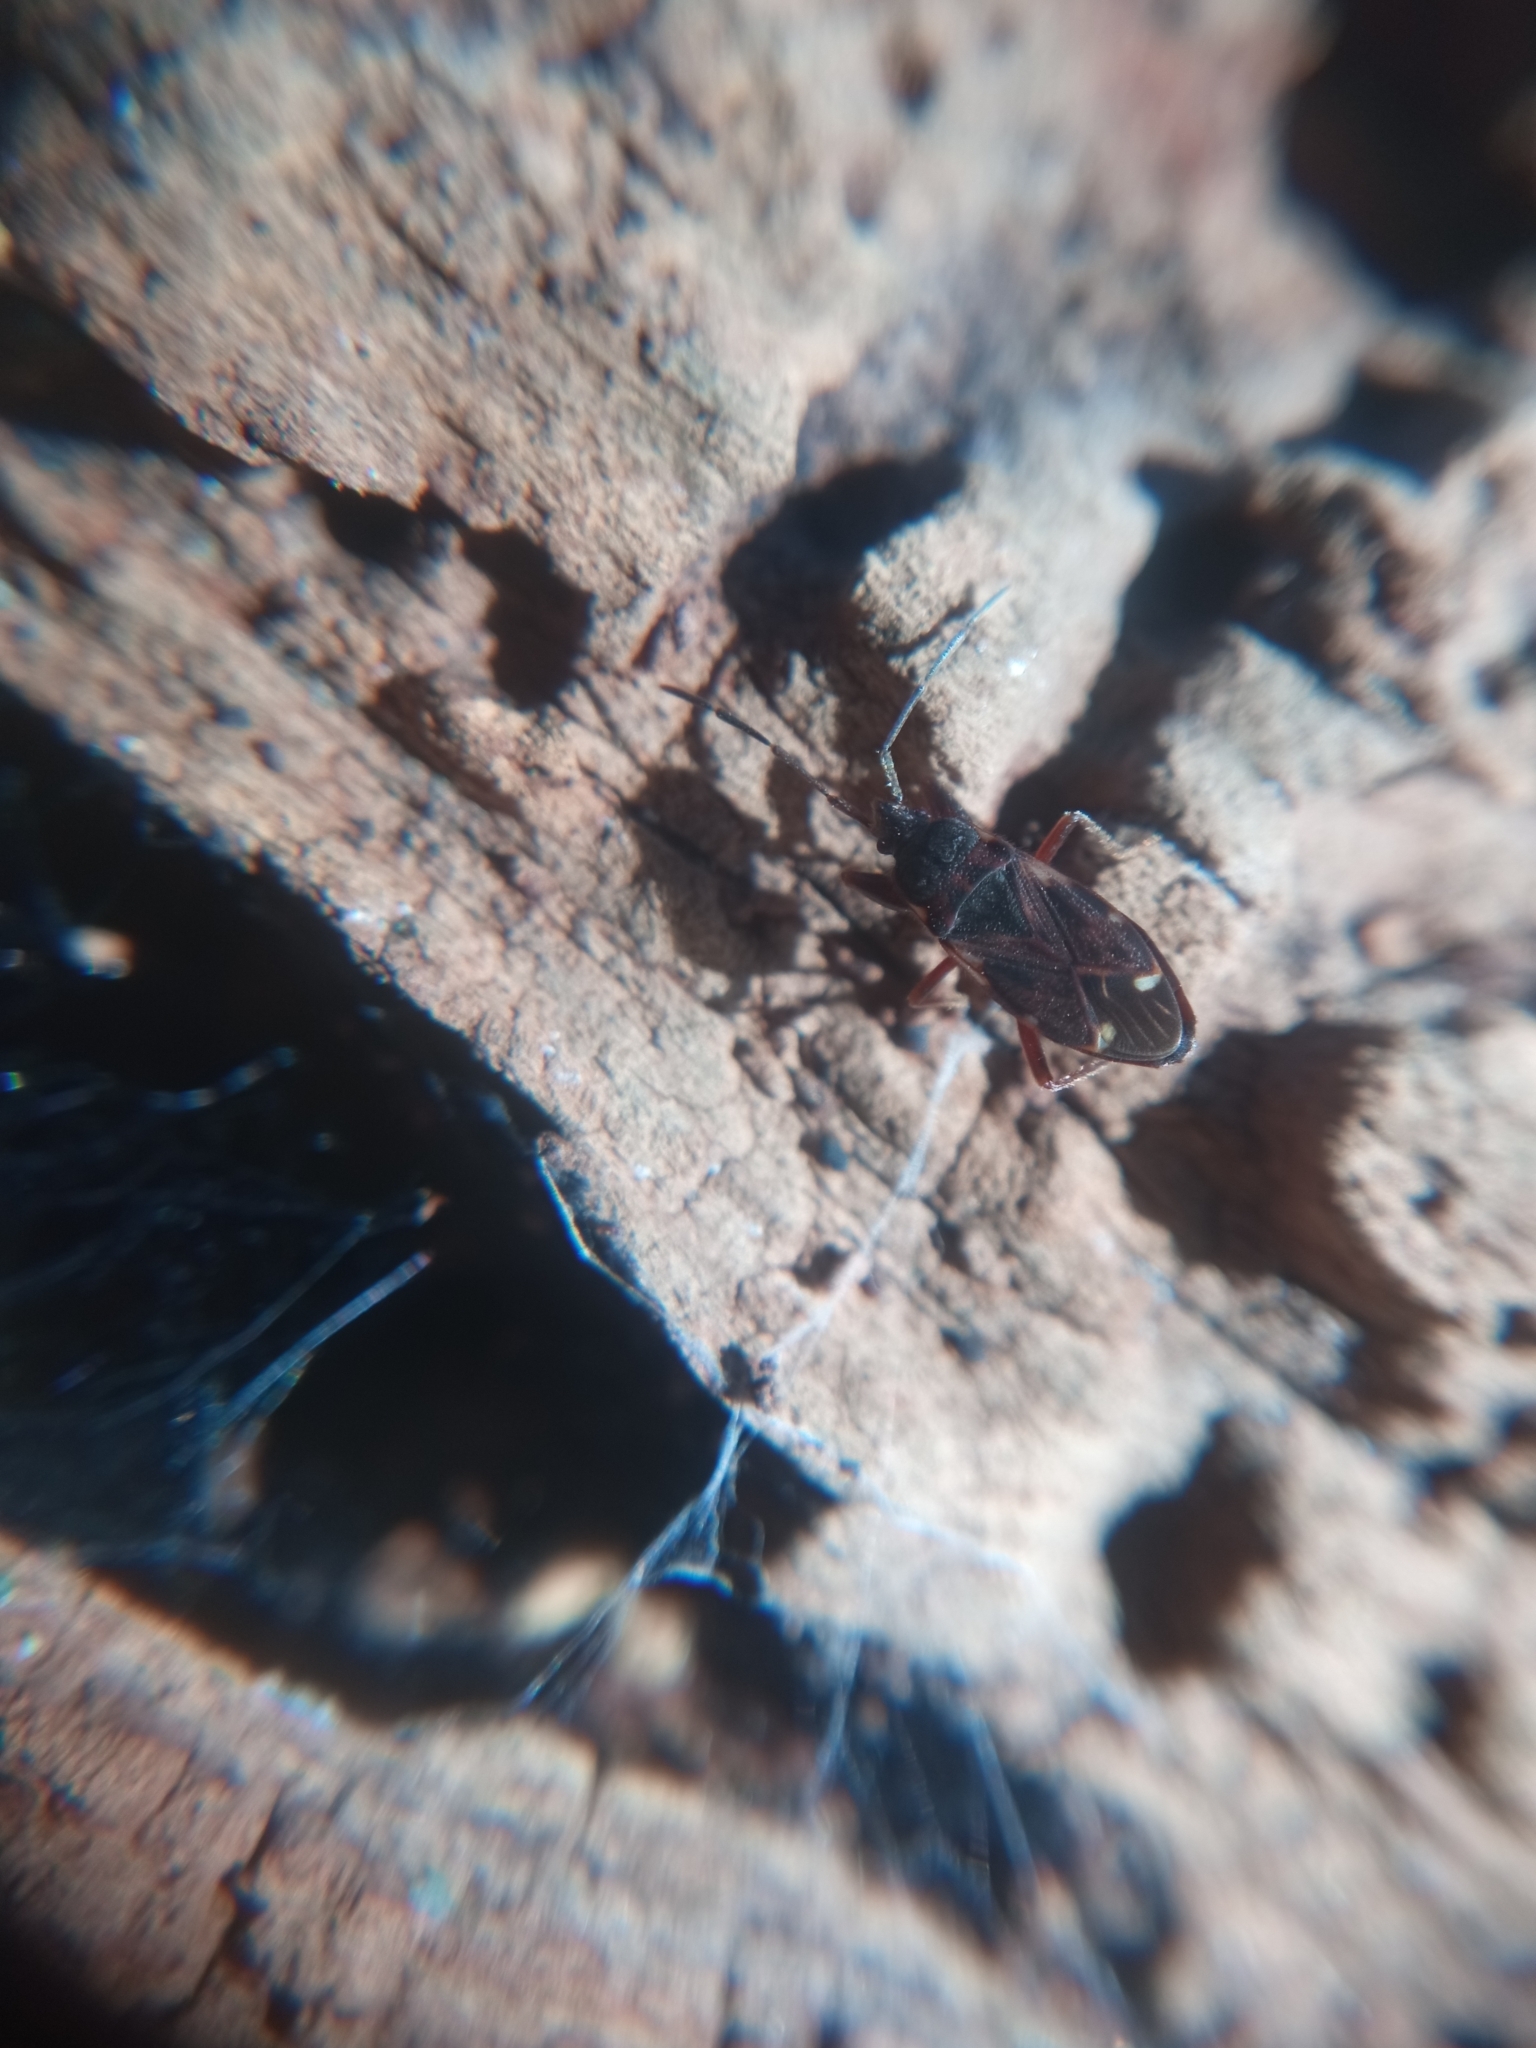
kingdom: Animalia
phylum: Arthropoda
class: Insecta
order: Hemiptera
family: Rhyparochromidae
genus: Eremocoris
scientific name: Eremocoris podagricus
